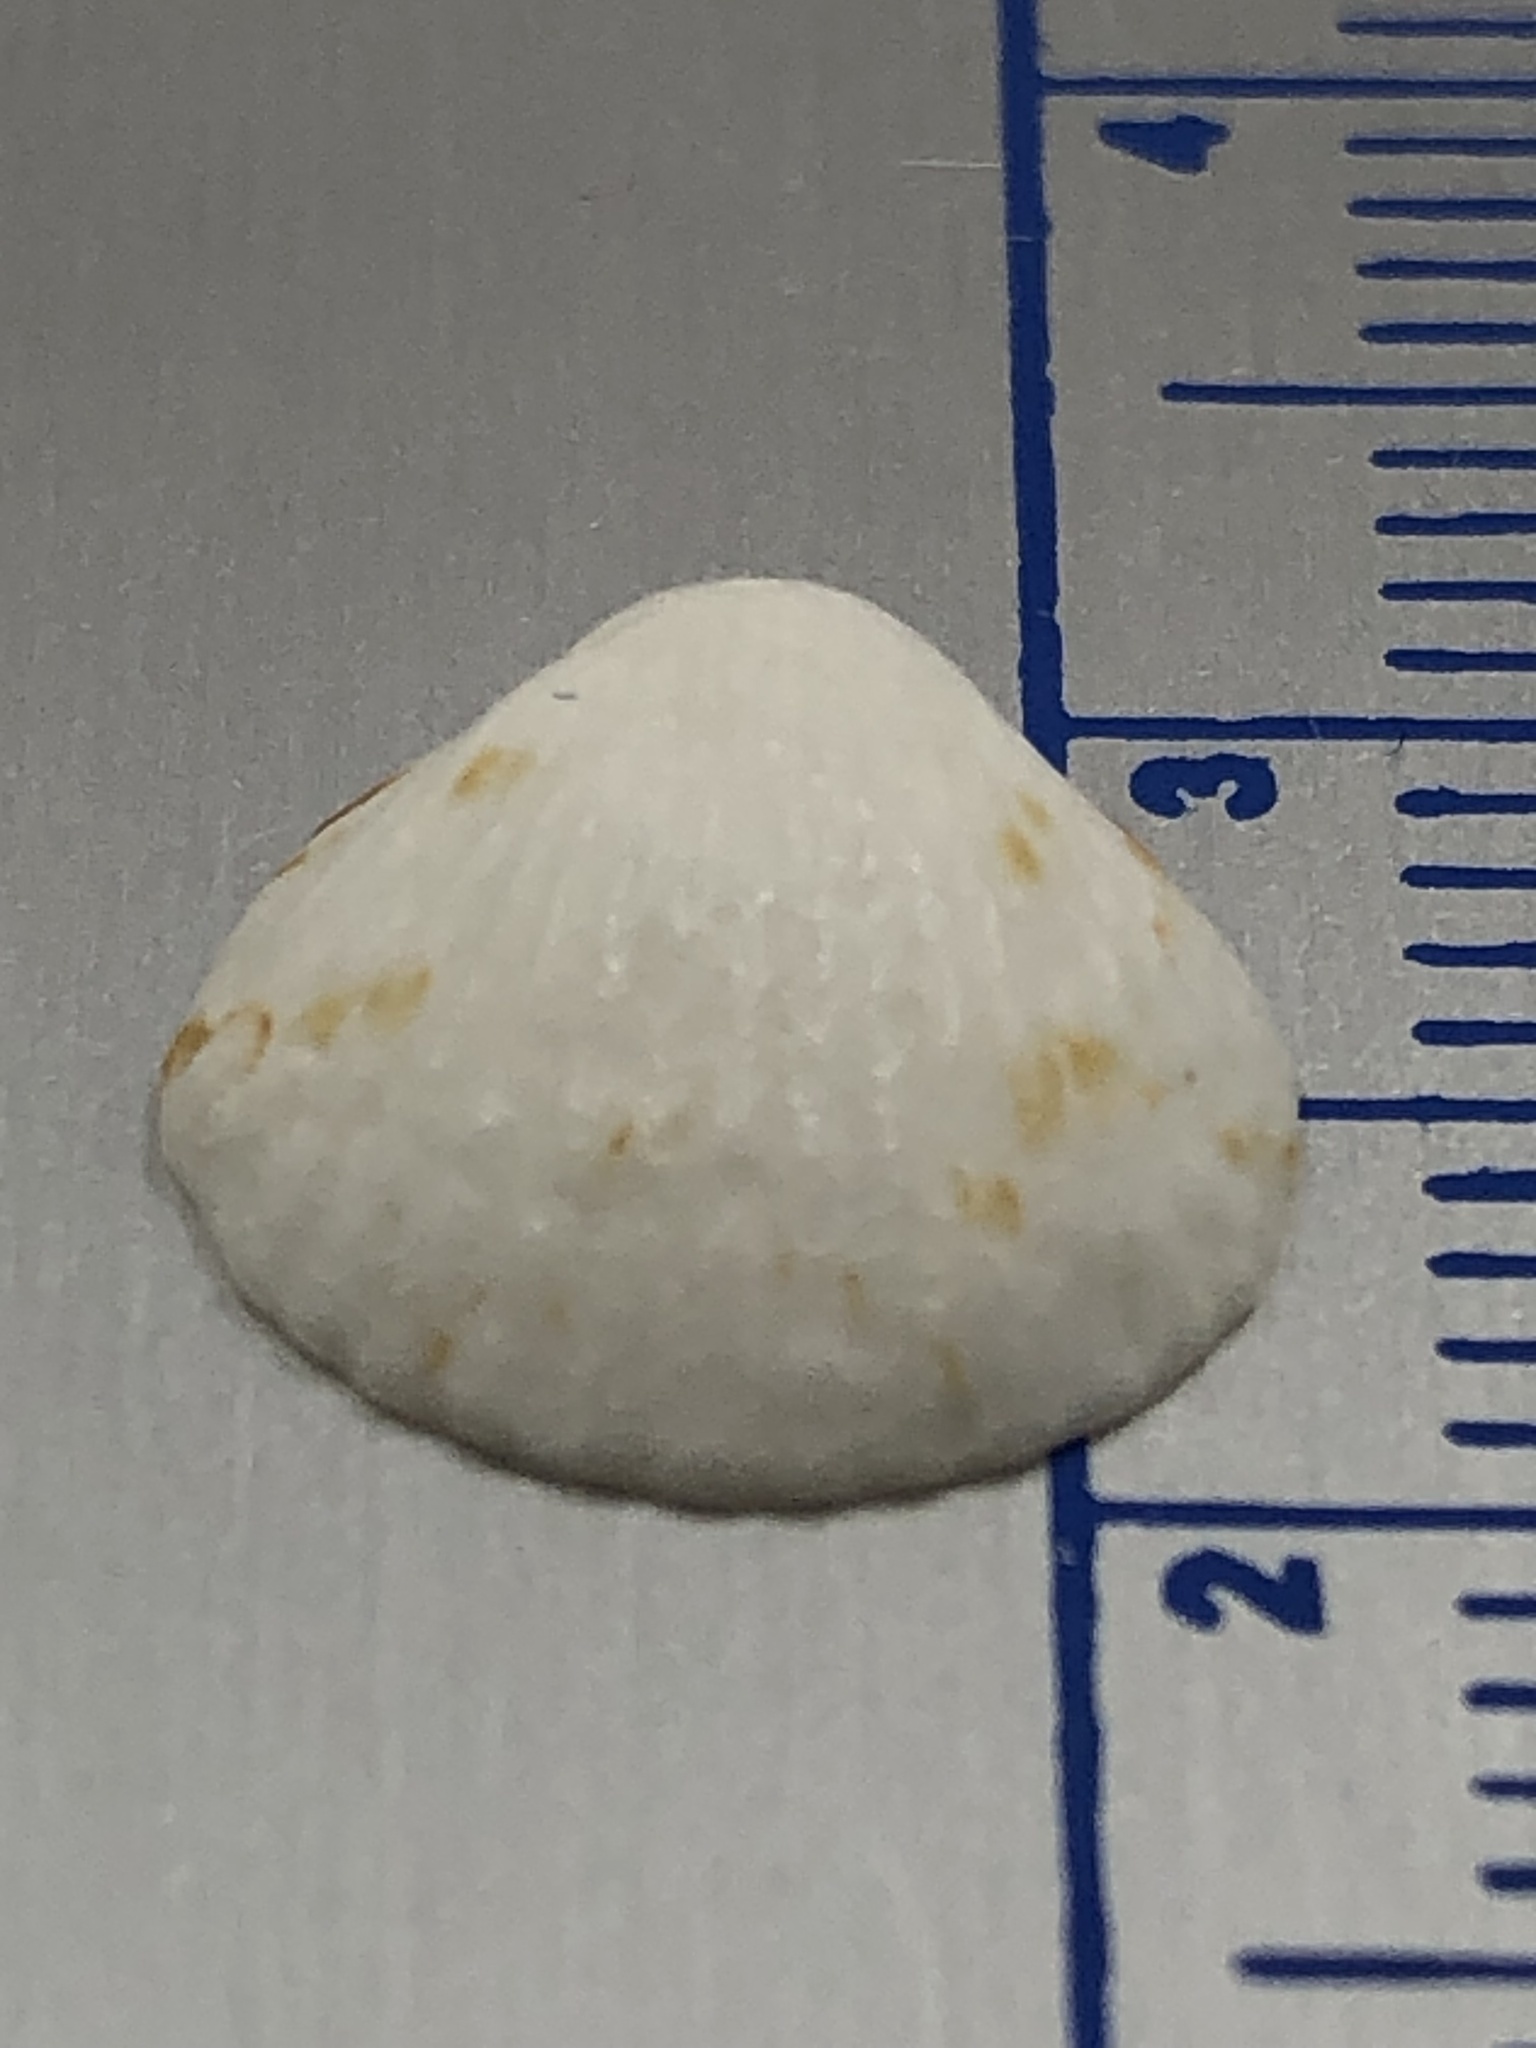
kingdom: Animalia
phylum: Mollusca
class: Bivalvia
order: Arcida
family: Glycymerididae
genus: Tucetona
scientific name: Tucetona pectinata
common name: Comb bittersweet
